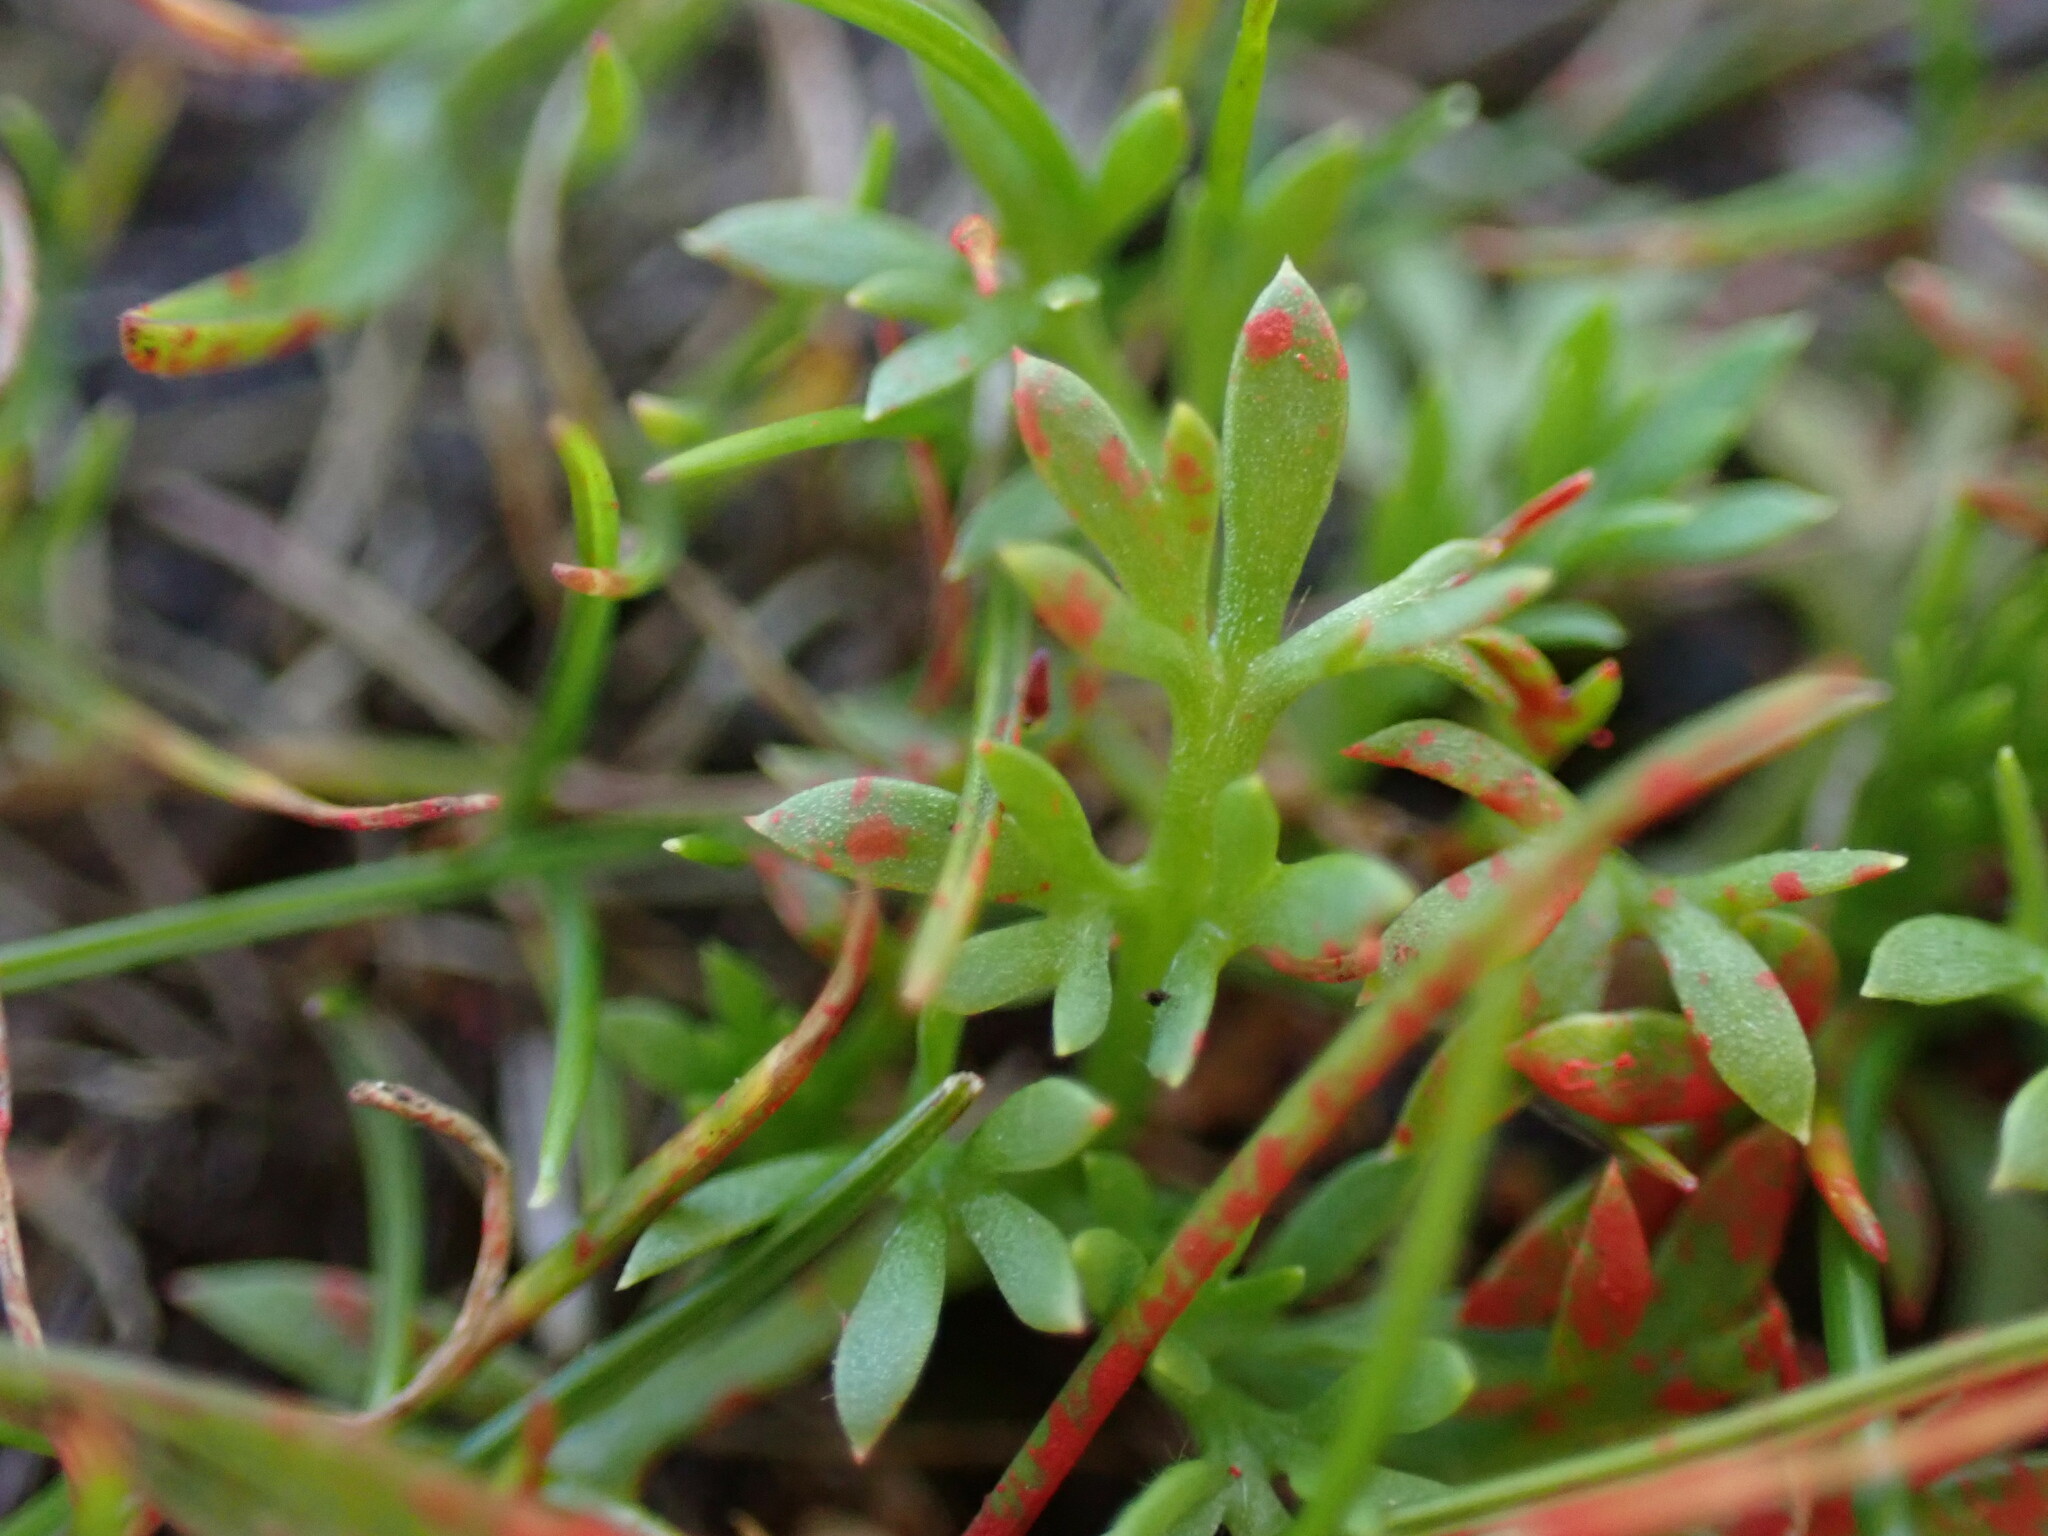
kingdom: Plantae
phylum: Tracheophyta
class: Magnoliopsida
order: Asterales
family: Asteraceae
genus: Soliva
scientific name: Soliva sessilis
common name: Field burrweed
